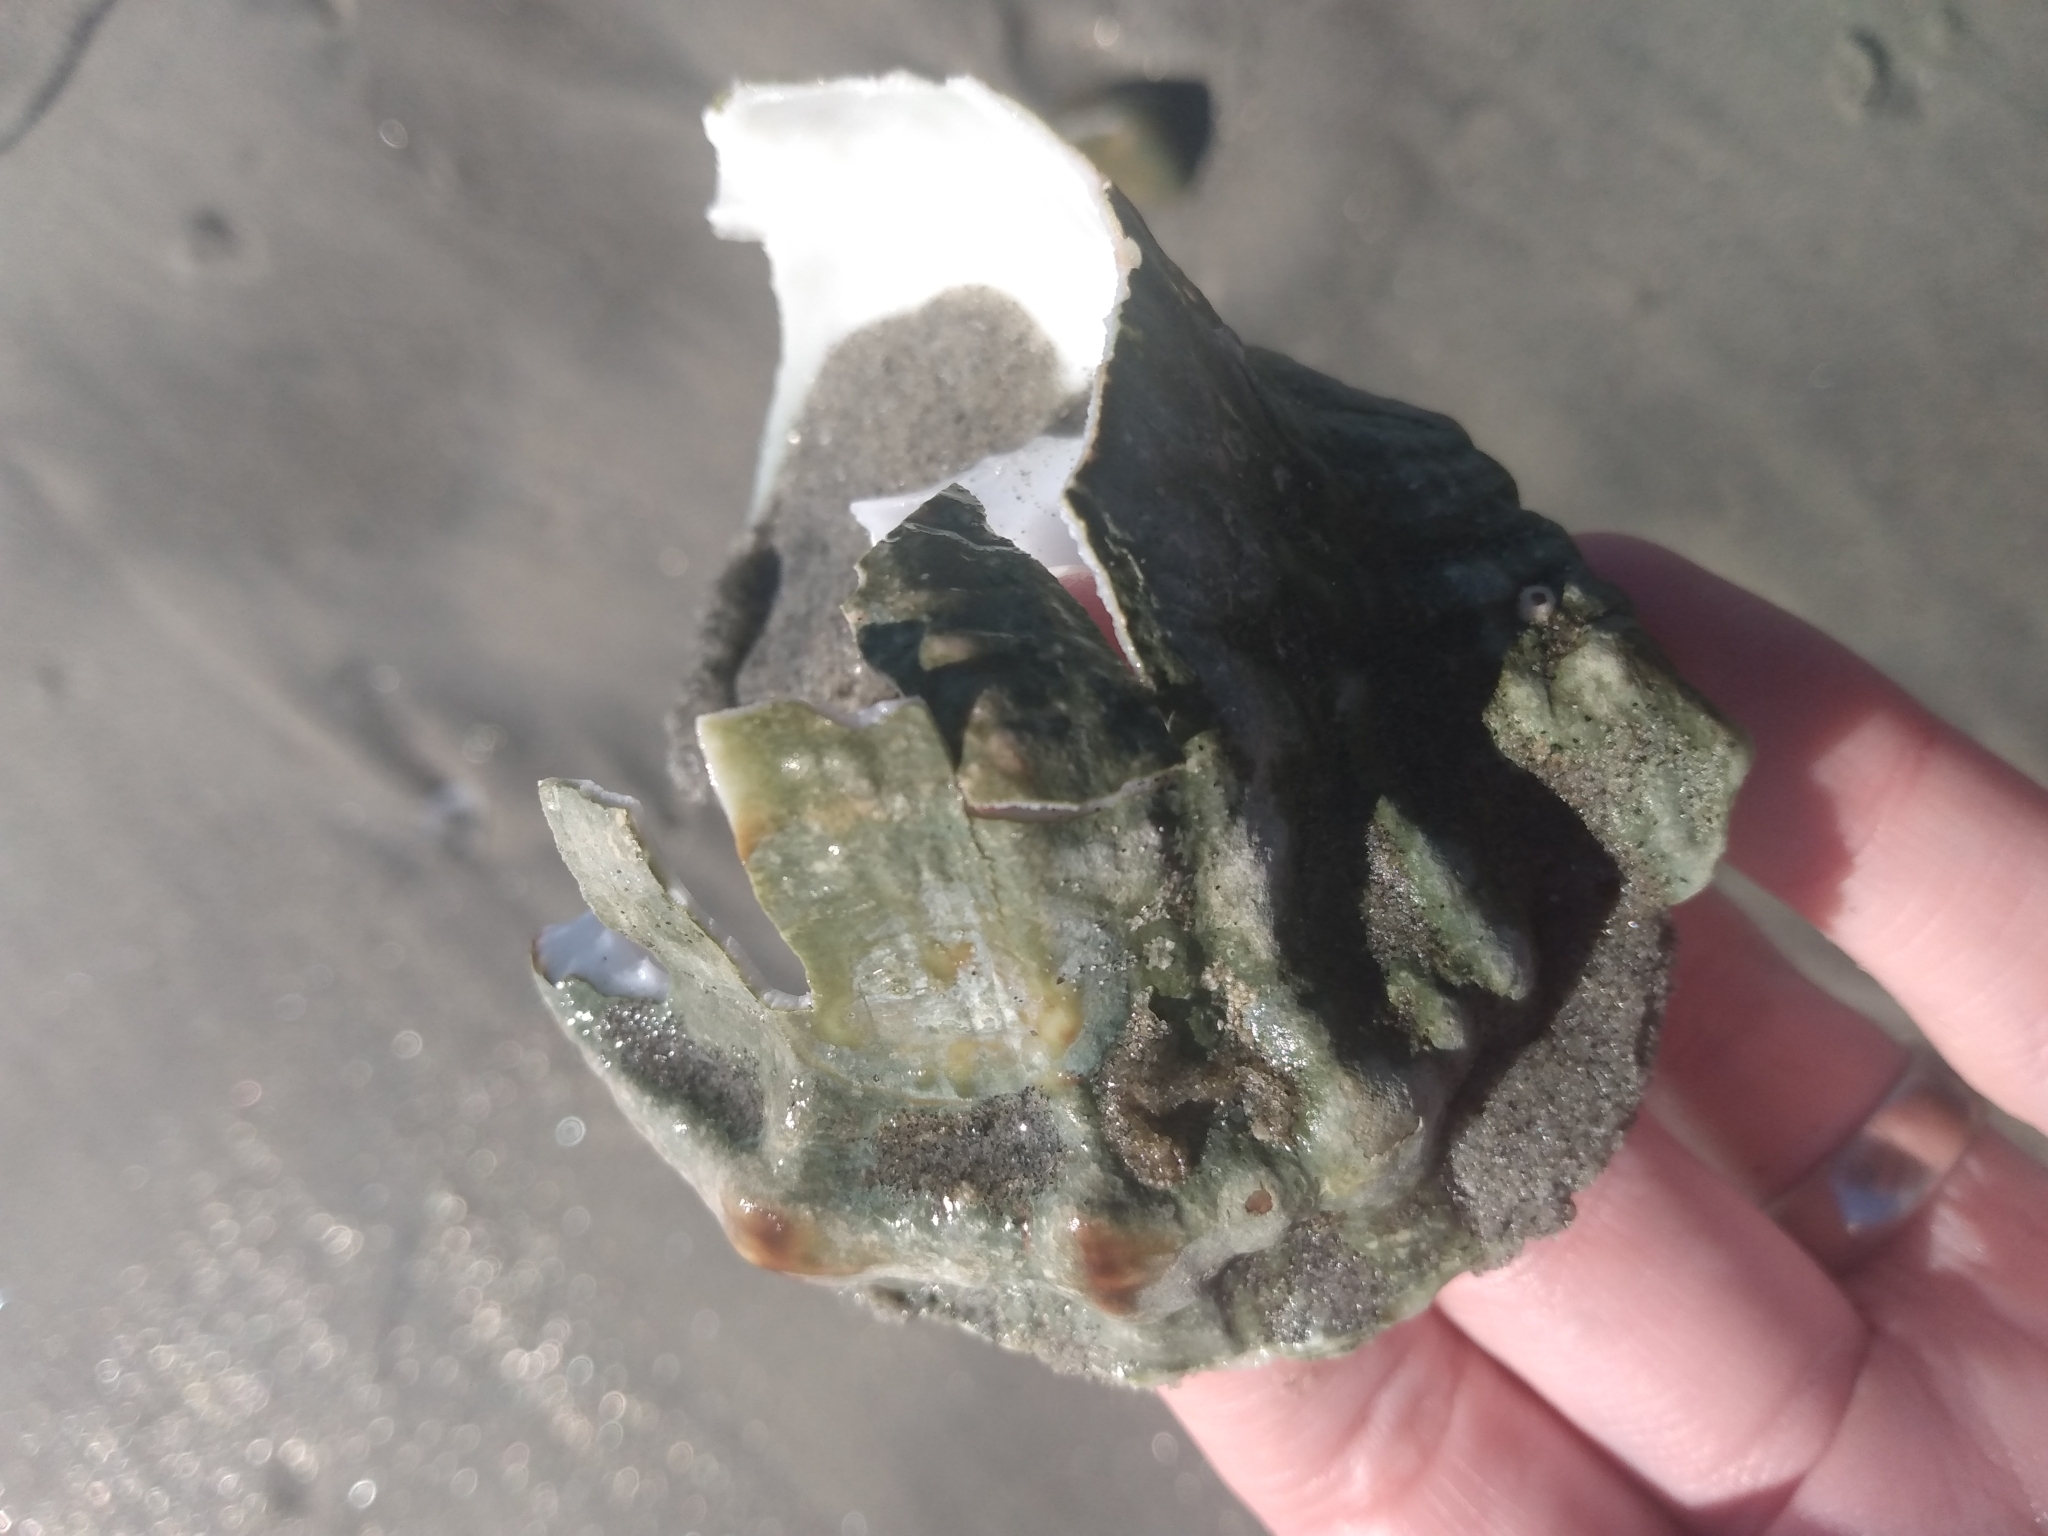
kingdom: Animalia
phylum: Mollusca
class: Gastropoda
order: Littorinimorpha
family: Bursidae
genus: Crossata
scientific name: Crossata californica
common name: California frogsnail
